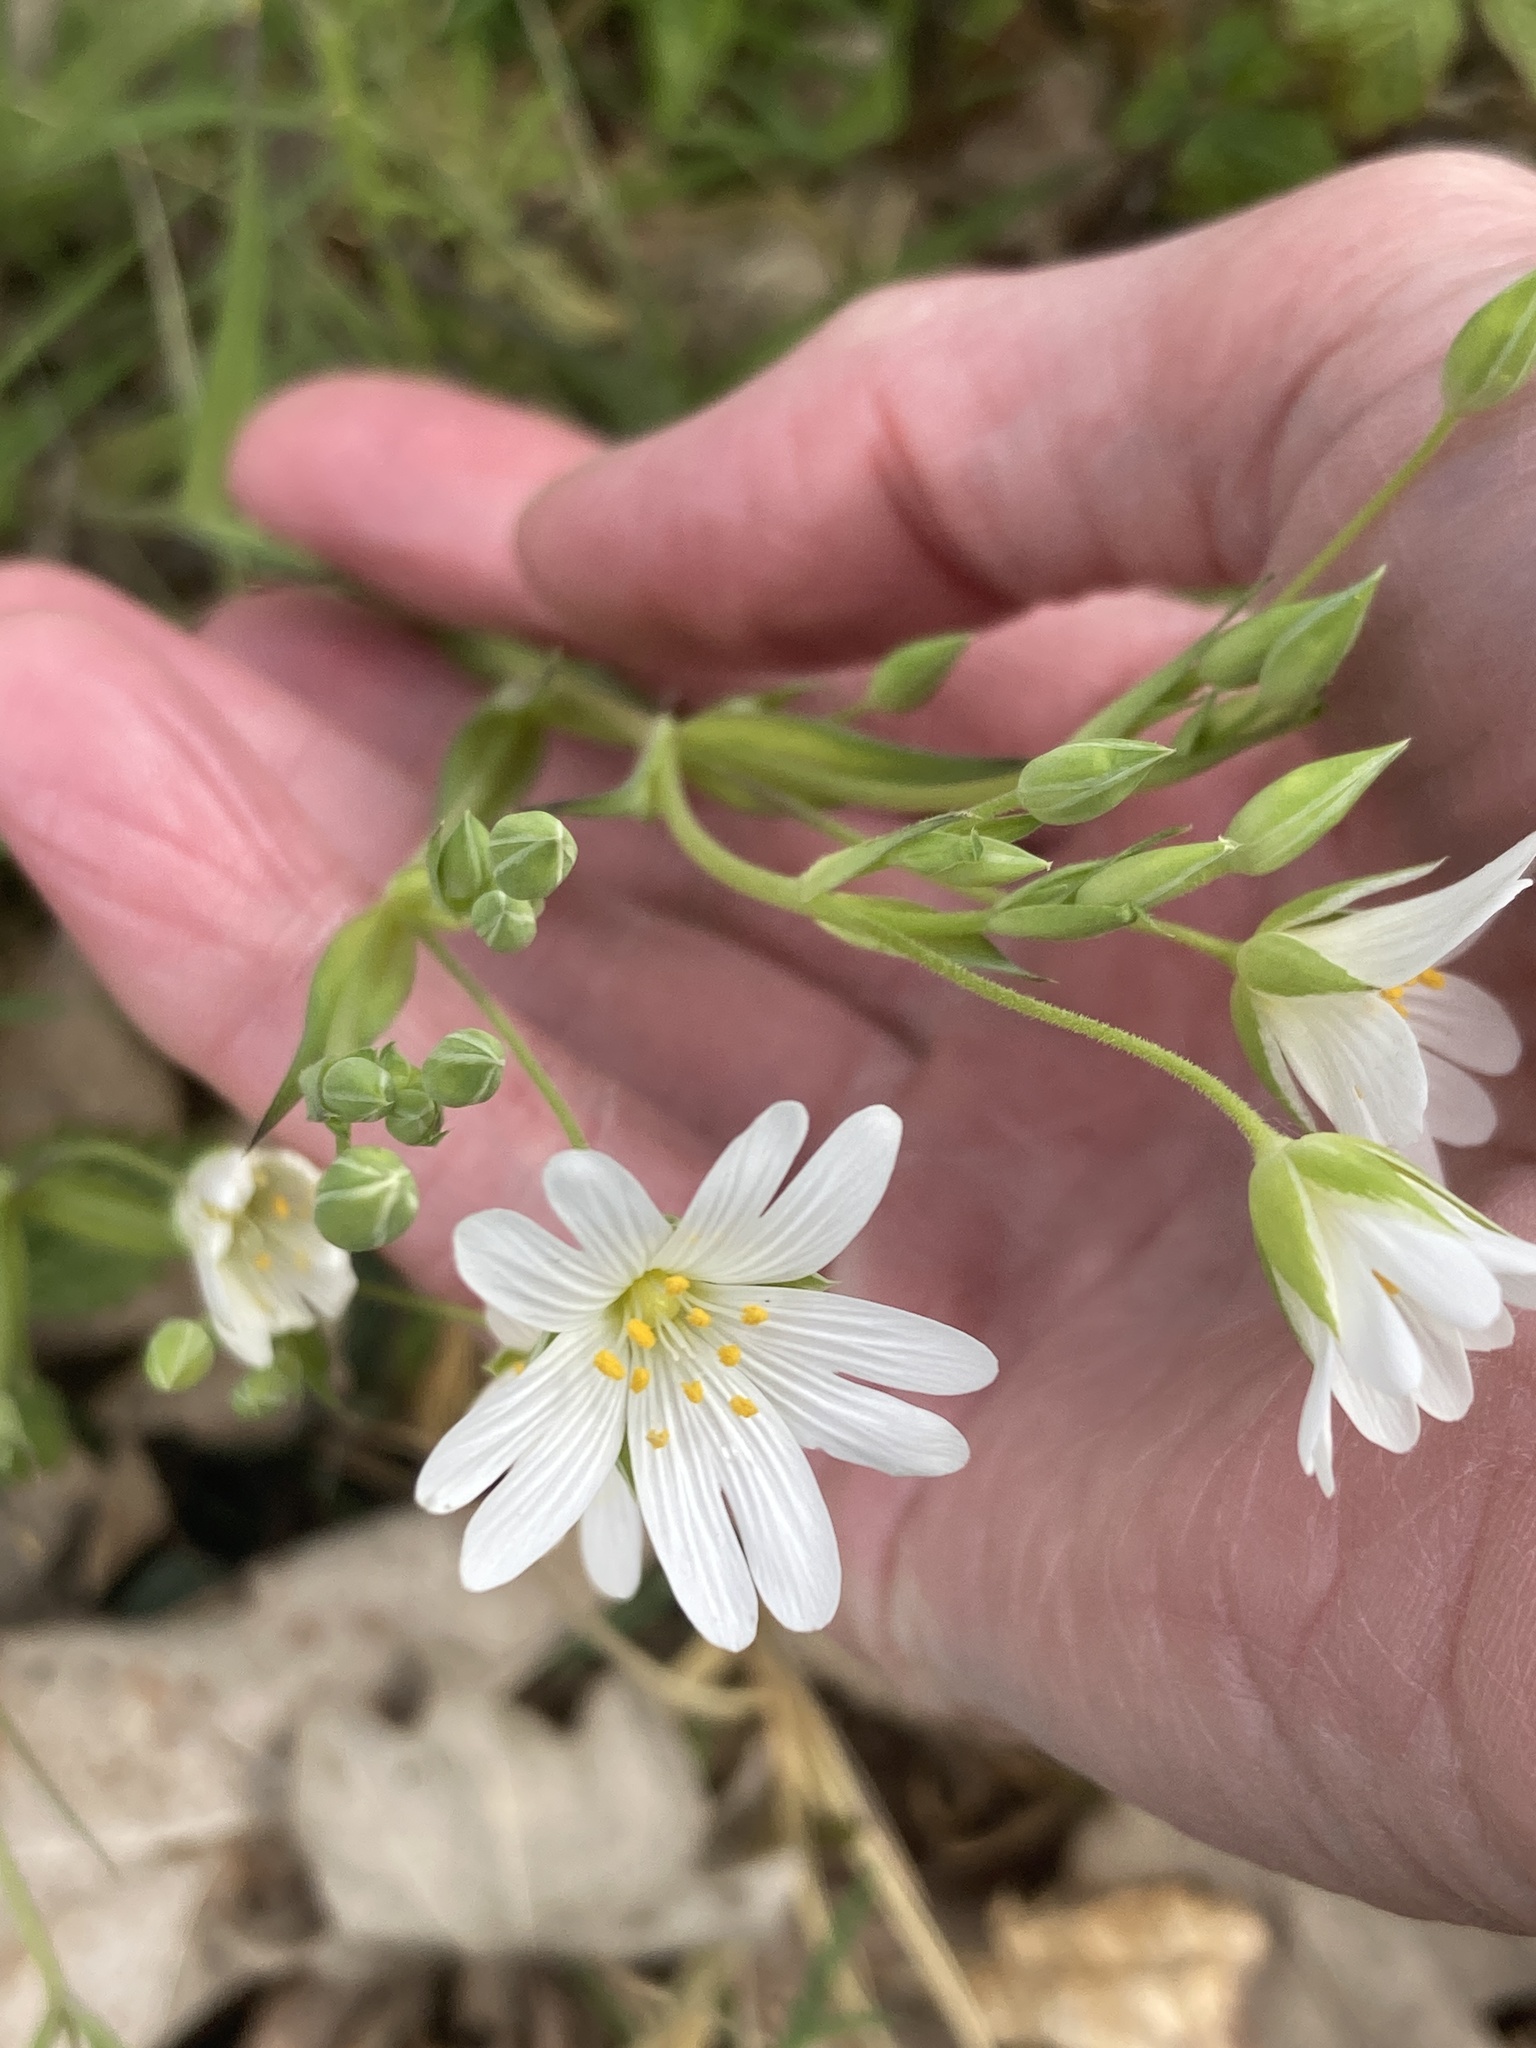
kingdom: Plantae
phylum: Tracheophyta
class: Magnoliopsida
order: Caryophyllales
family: Caryophyllaceae
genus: Rabelera
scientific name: Rabelera holostea
